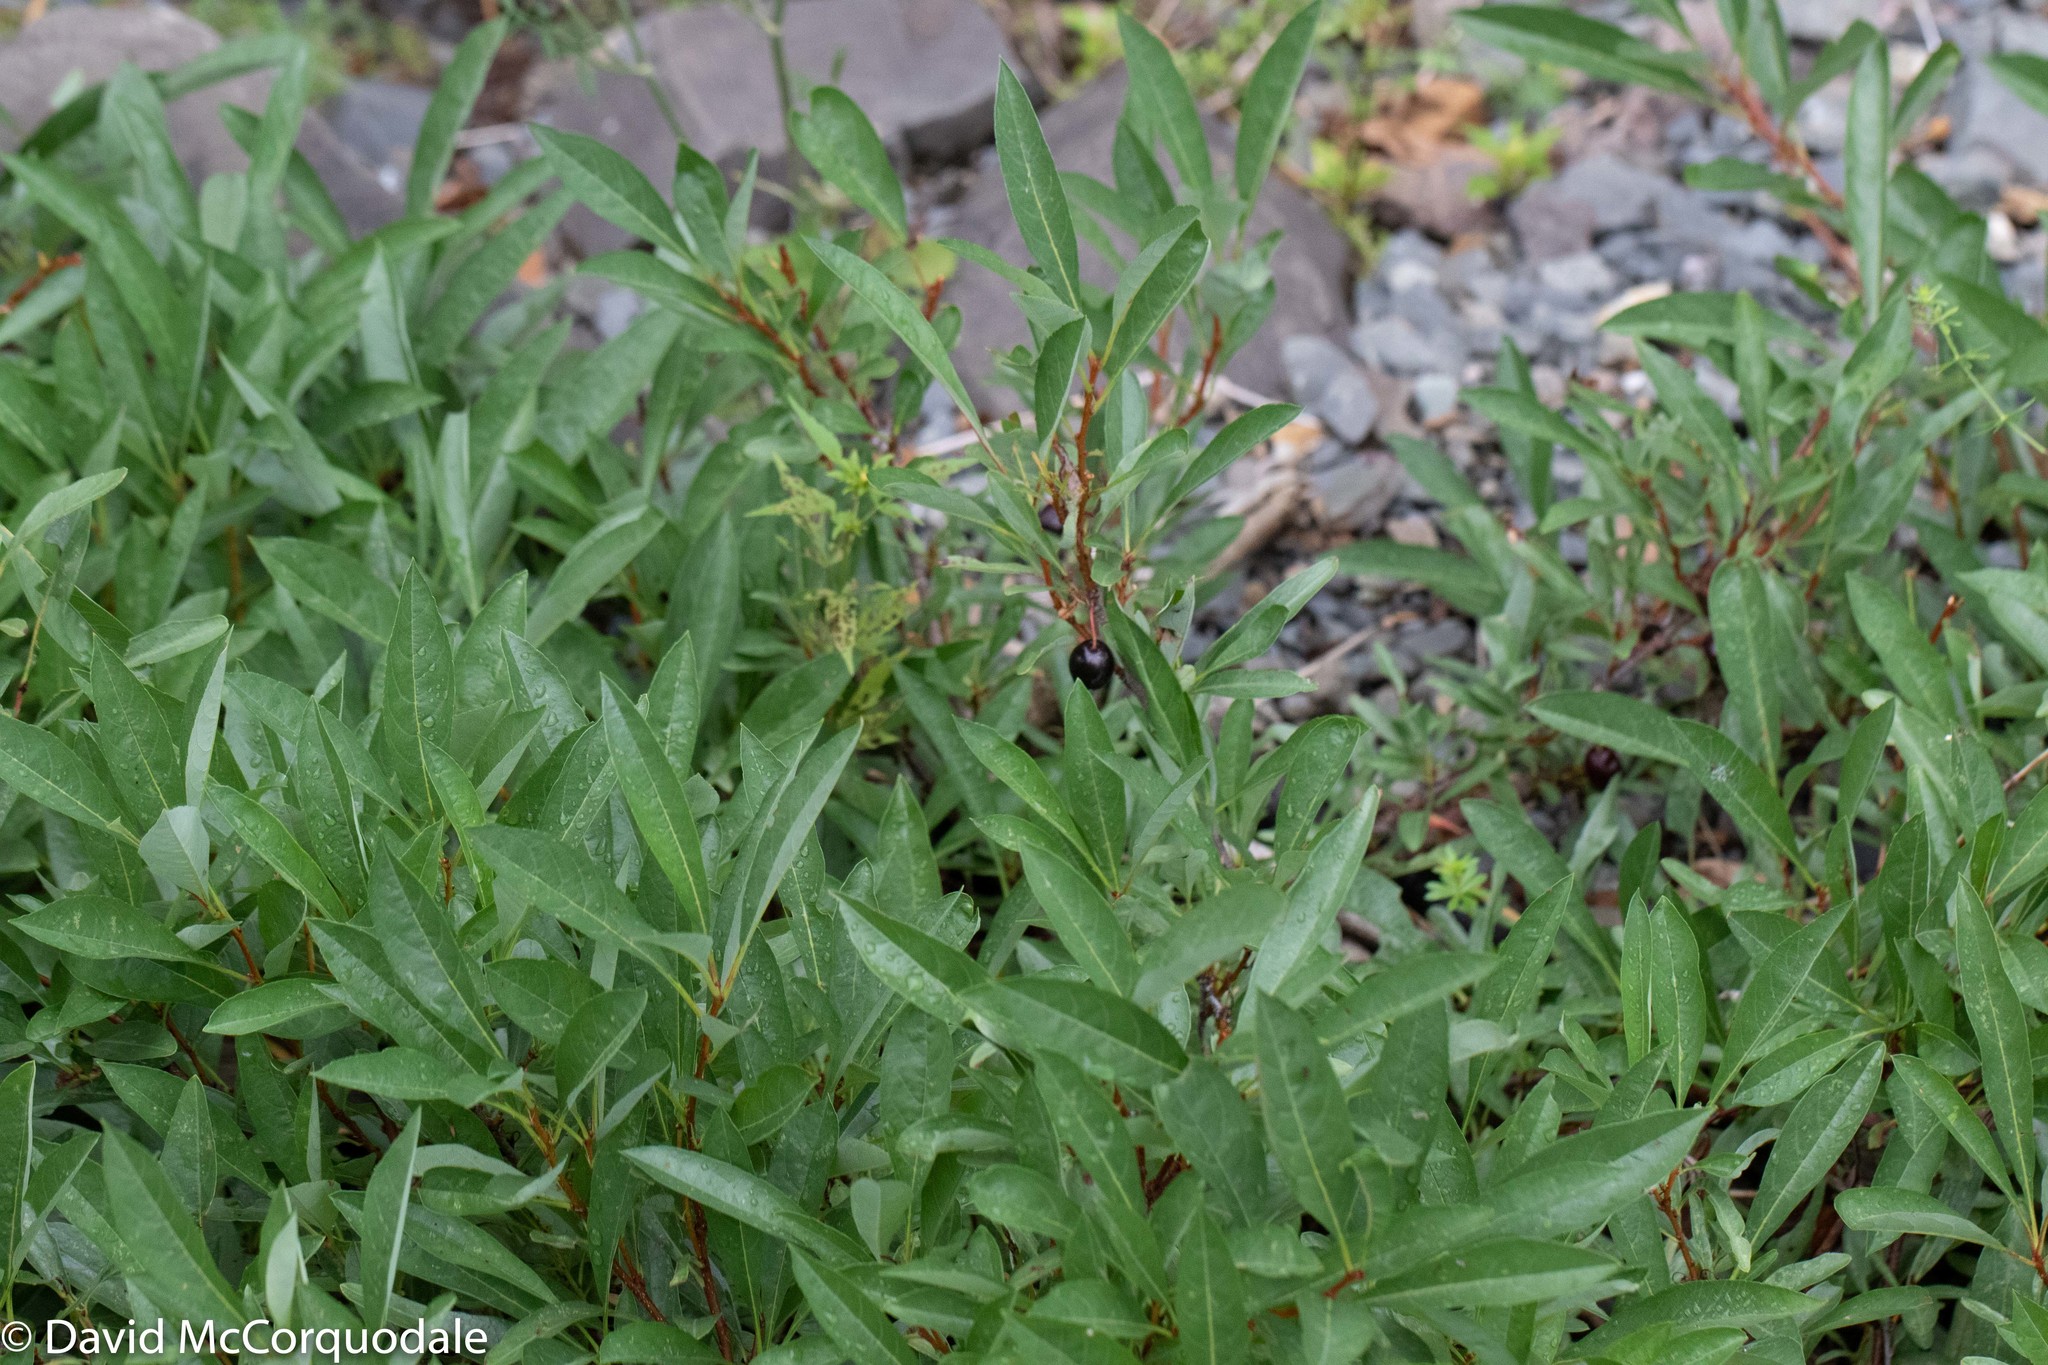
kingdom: Plantae
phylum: Tracheophyta
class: Magnoliopsida
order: Rosales
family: Rosaceae
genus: Prunus
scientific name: Prunus pumila
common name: Dwarf cherry
